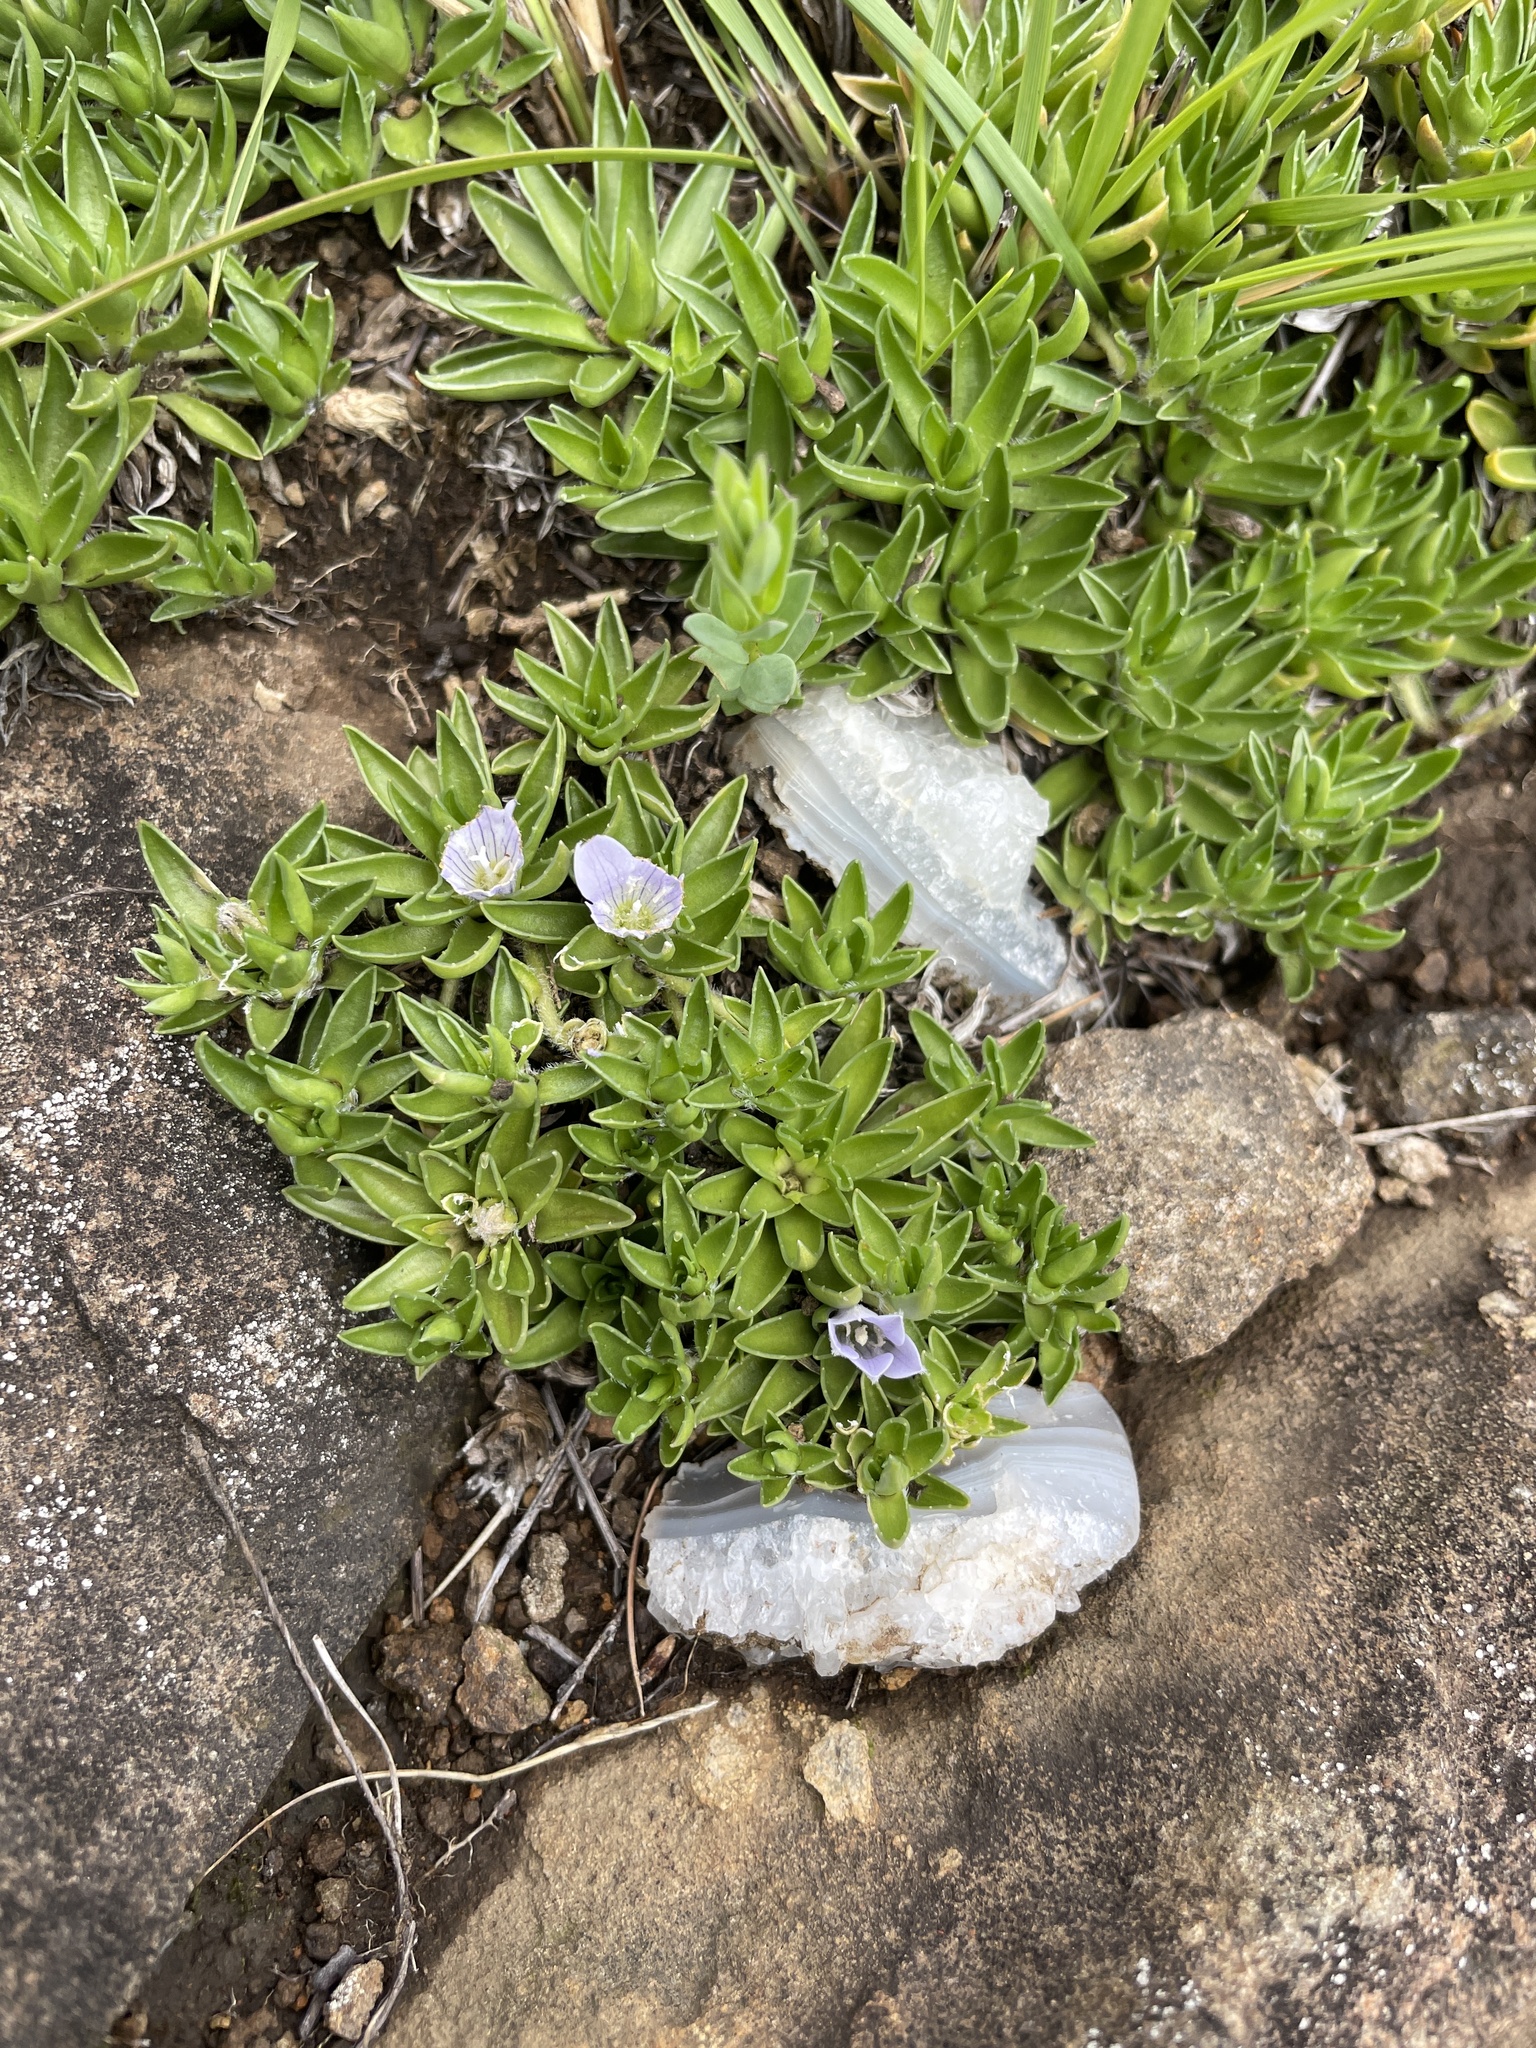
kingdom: Plantae
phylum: Tracheophyta
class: Magnoliopsida
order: Asterales
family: Campanulaceae
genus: Craterocapsa
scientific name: Craterocapsa tarsodes
